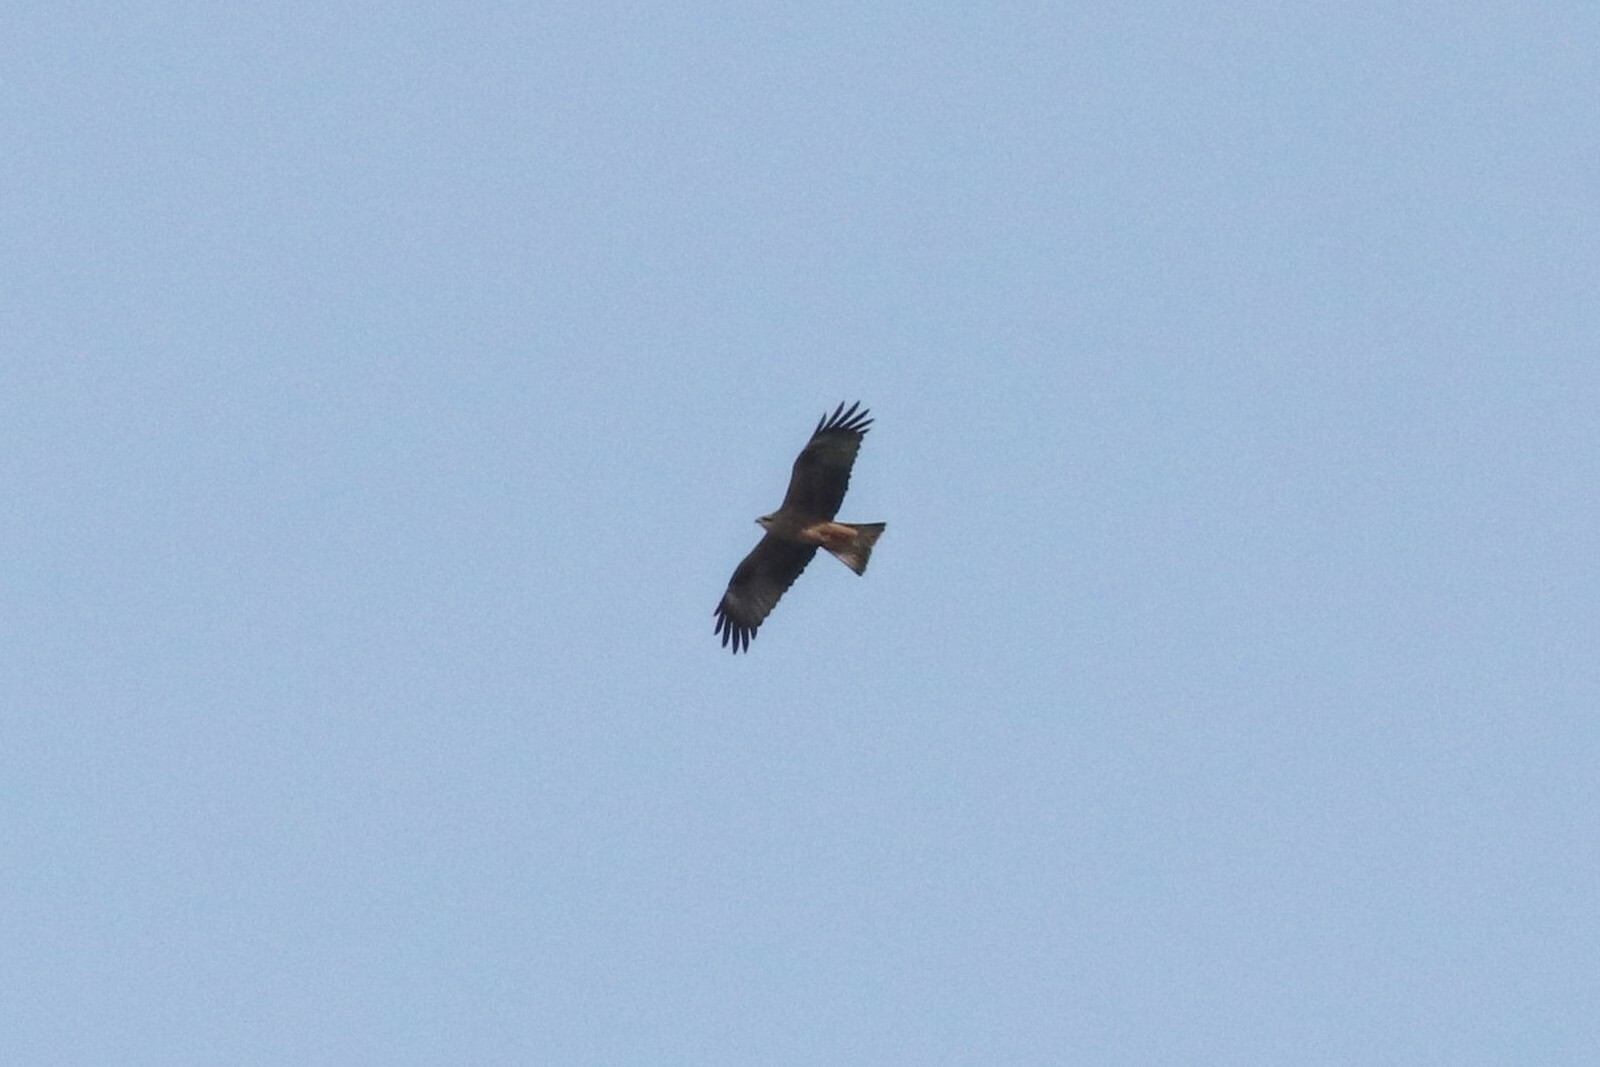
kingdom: Animalia
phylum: Chordata
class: Aves
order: Accipitriformes
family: Accipitridae
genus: Milvus
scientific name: Milvus migrans
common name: Black kite
